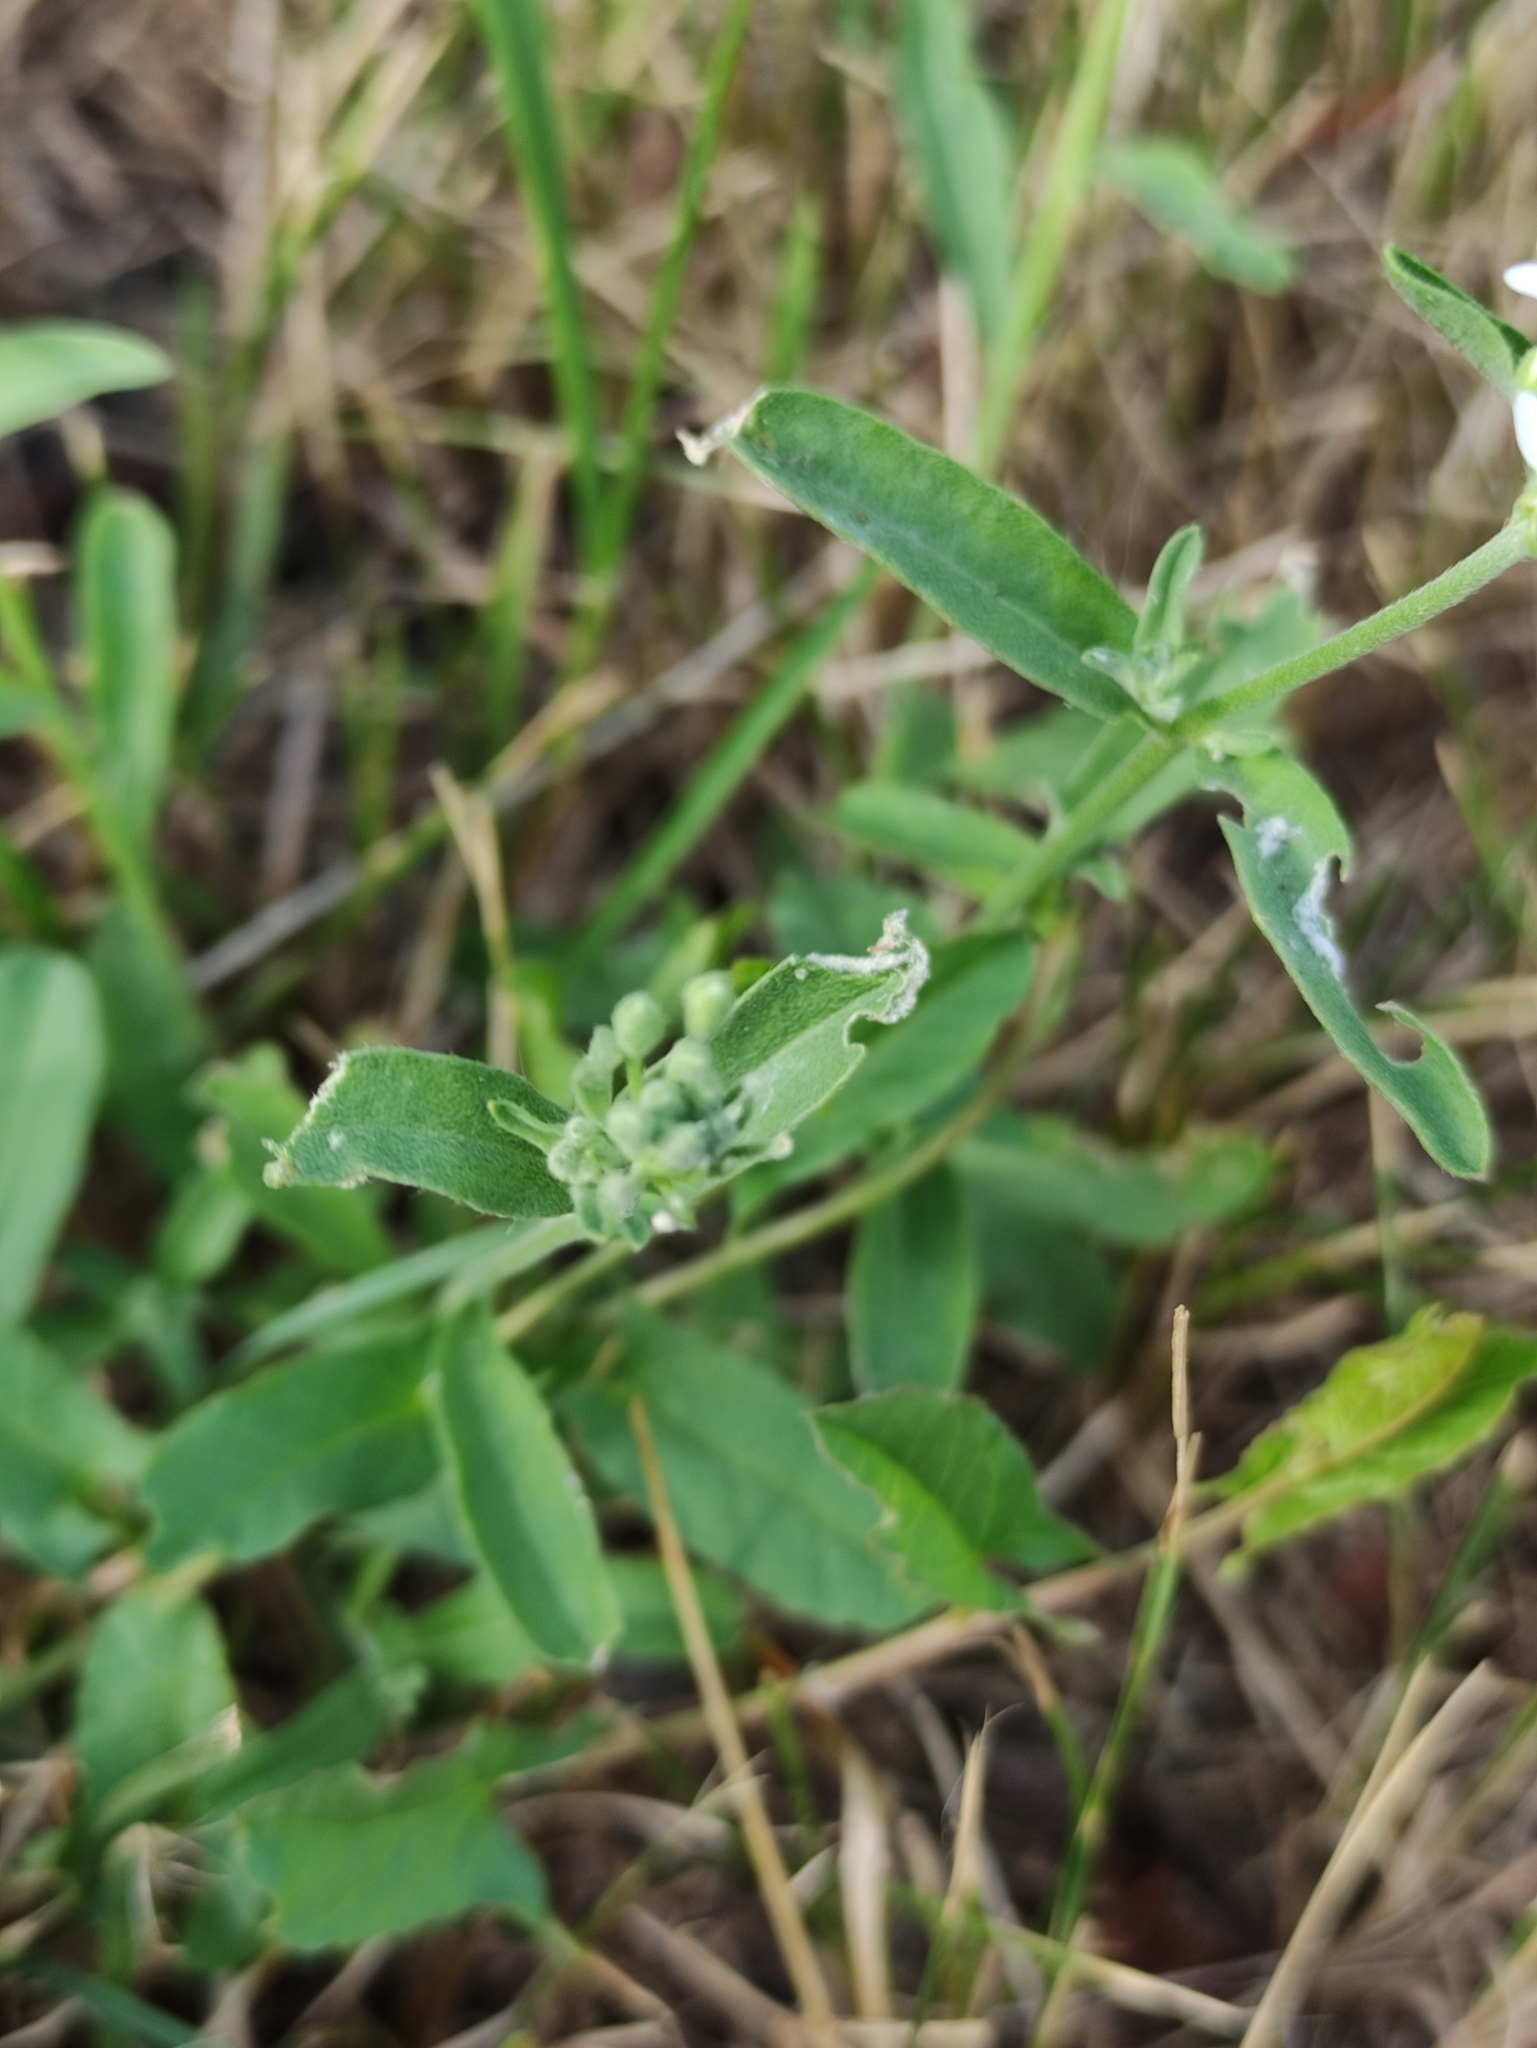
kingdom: Plantae
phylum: Tracheophyta
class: Magnoliopsida
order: Brassicales
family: Brassicaceae
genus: Berteroa
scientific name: Berteroa incana
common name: Hoary alison
